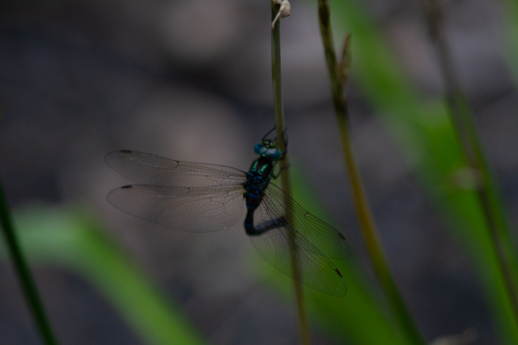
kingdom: Animalia
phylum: Arthropoda
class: Insecta
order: Odonata
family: Aeshnidae
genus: Aeshna
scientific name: Aeshna tuberculifera
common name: Aeschne à tubercules
